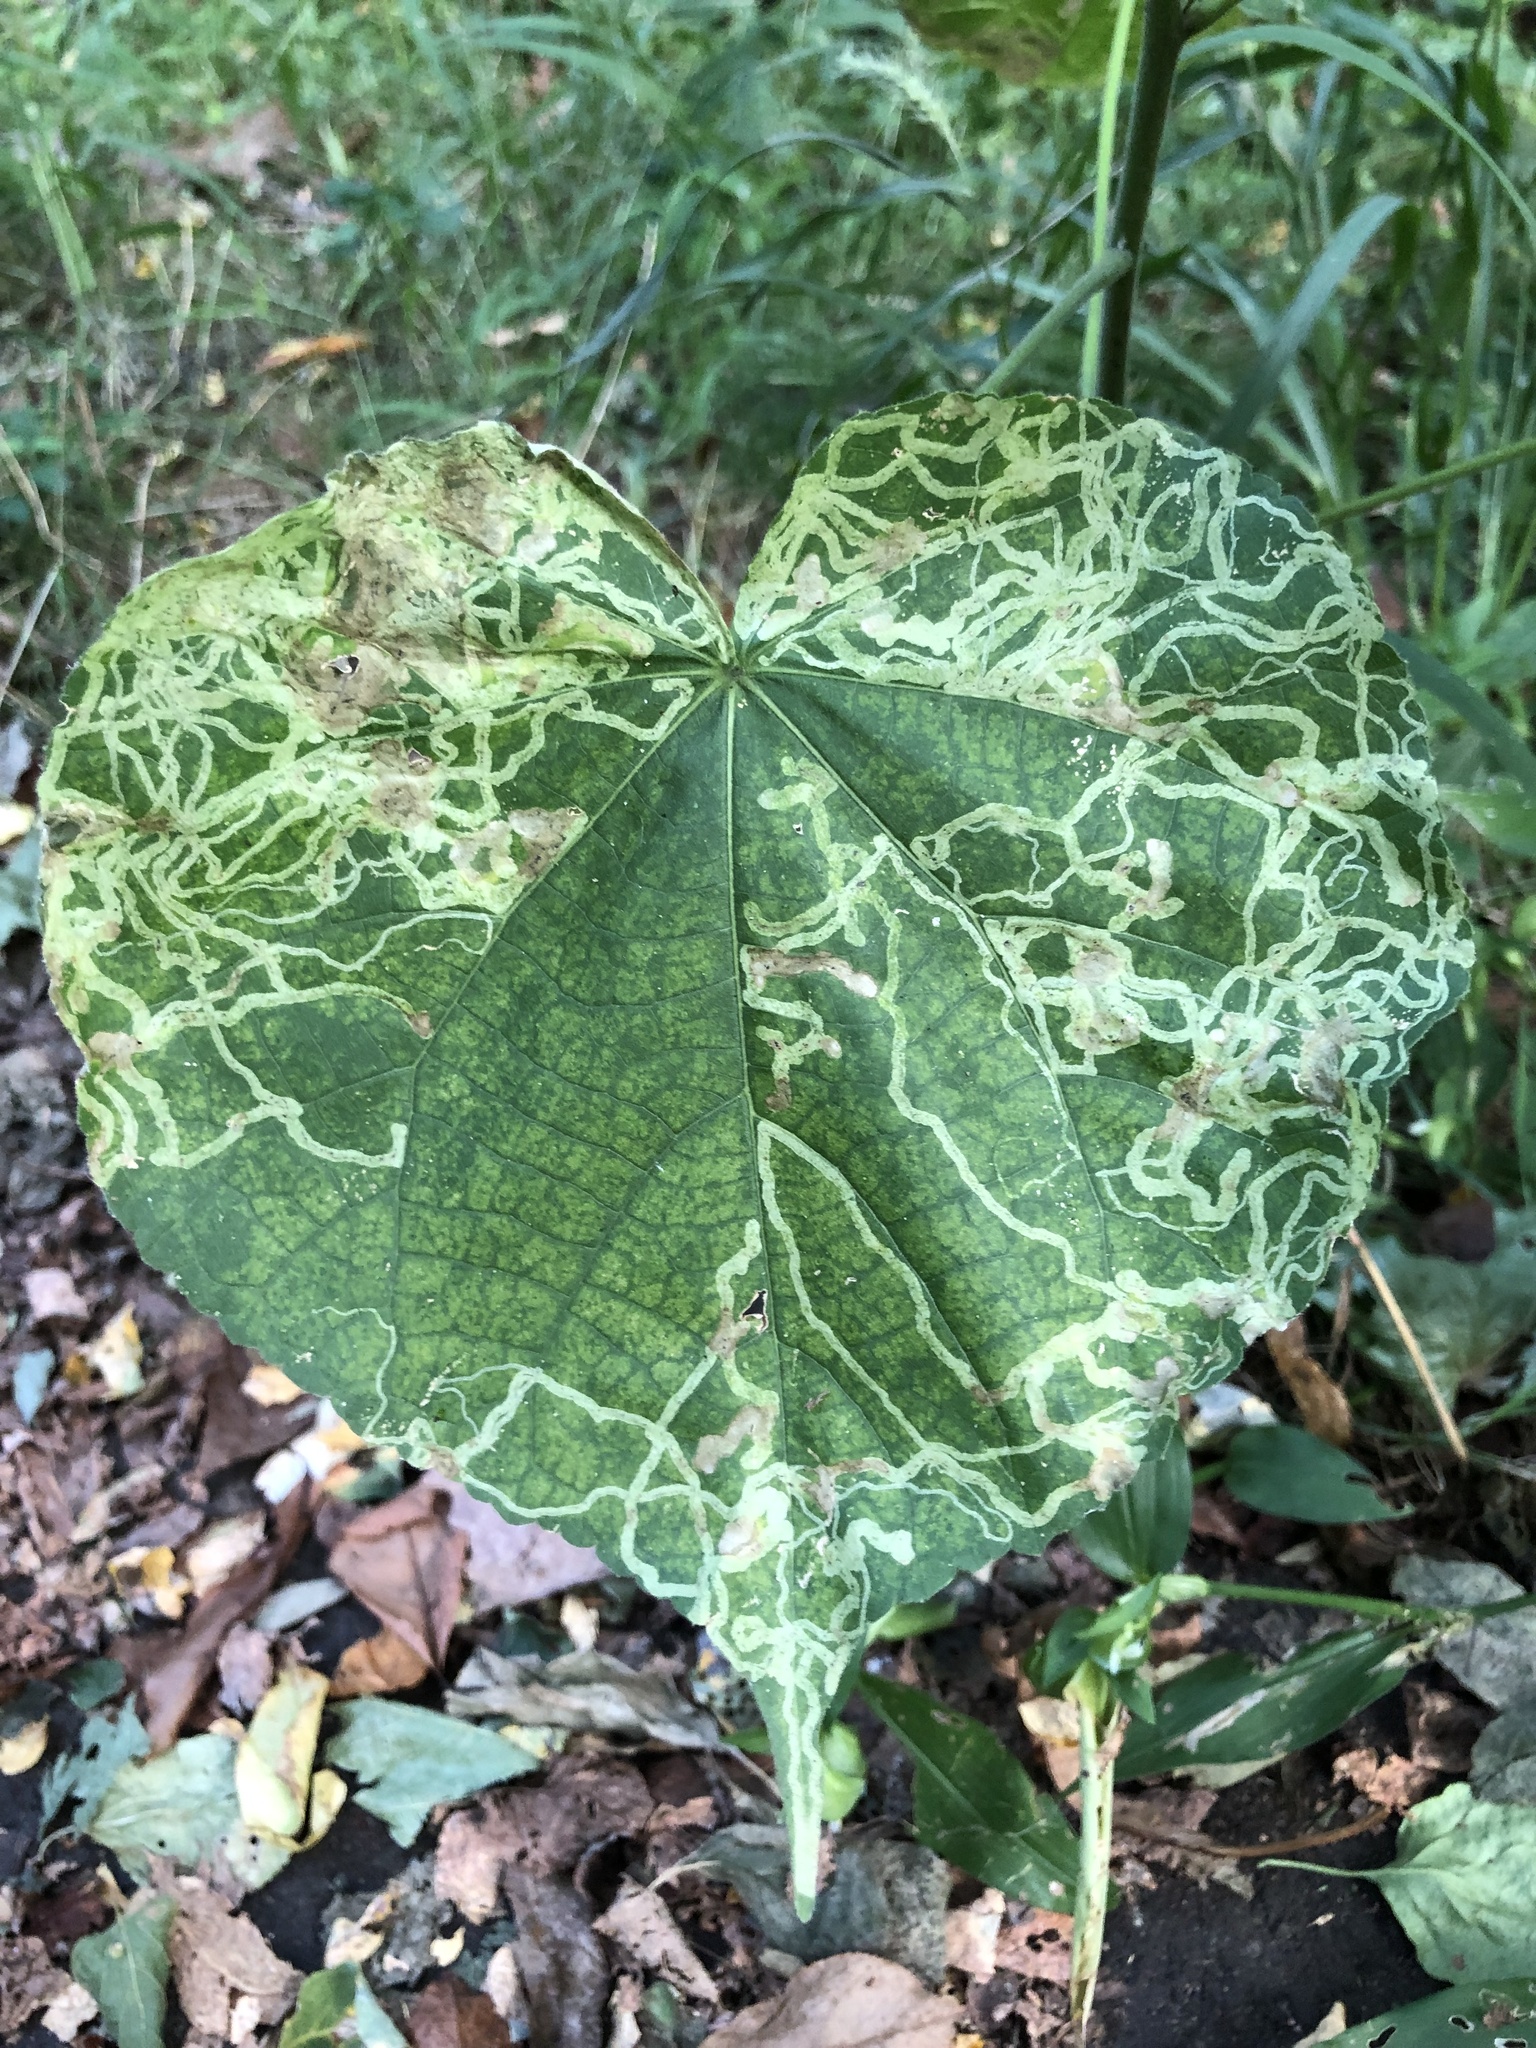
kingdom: Animalia
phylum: Arthropoda
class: Insecta
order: Diptera
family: Agromyzidae
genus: Calycomyza
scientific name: Calycomyza malvae
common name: Mallow leaf miner
